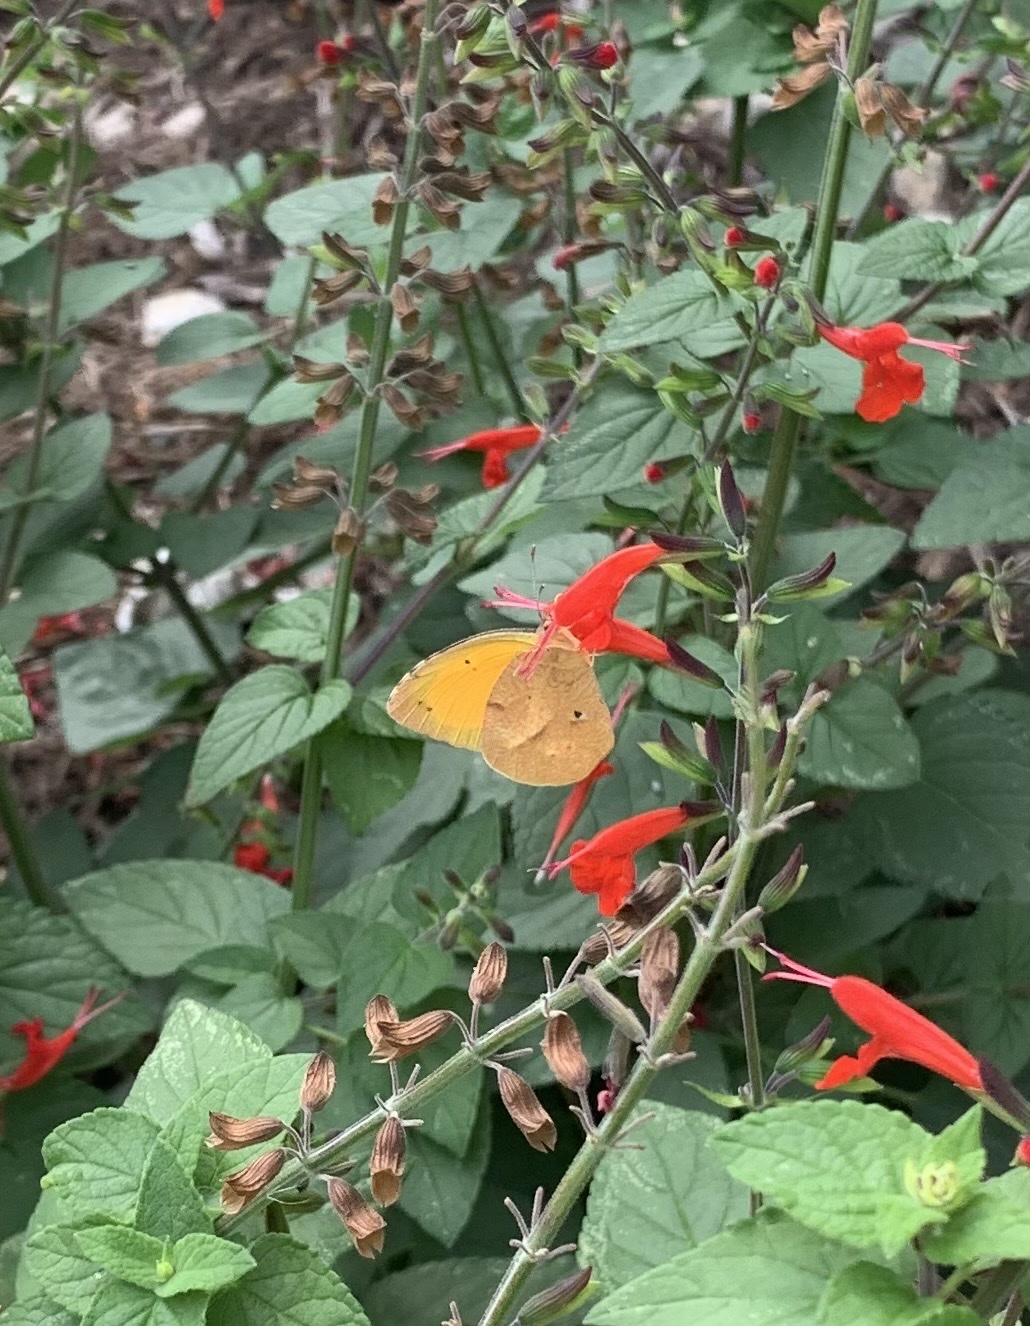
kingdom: Animalia
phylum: Arthropoda
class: Insecta
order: Lepidoptera
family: Pieridae
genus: Abaeis
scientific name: Abaeis nicippe
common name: Sleepy orange
